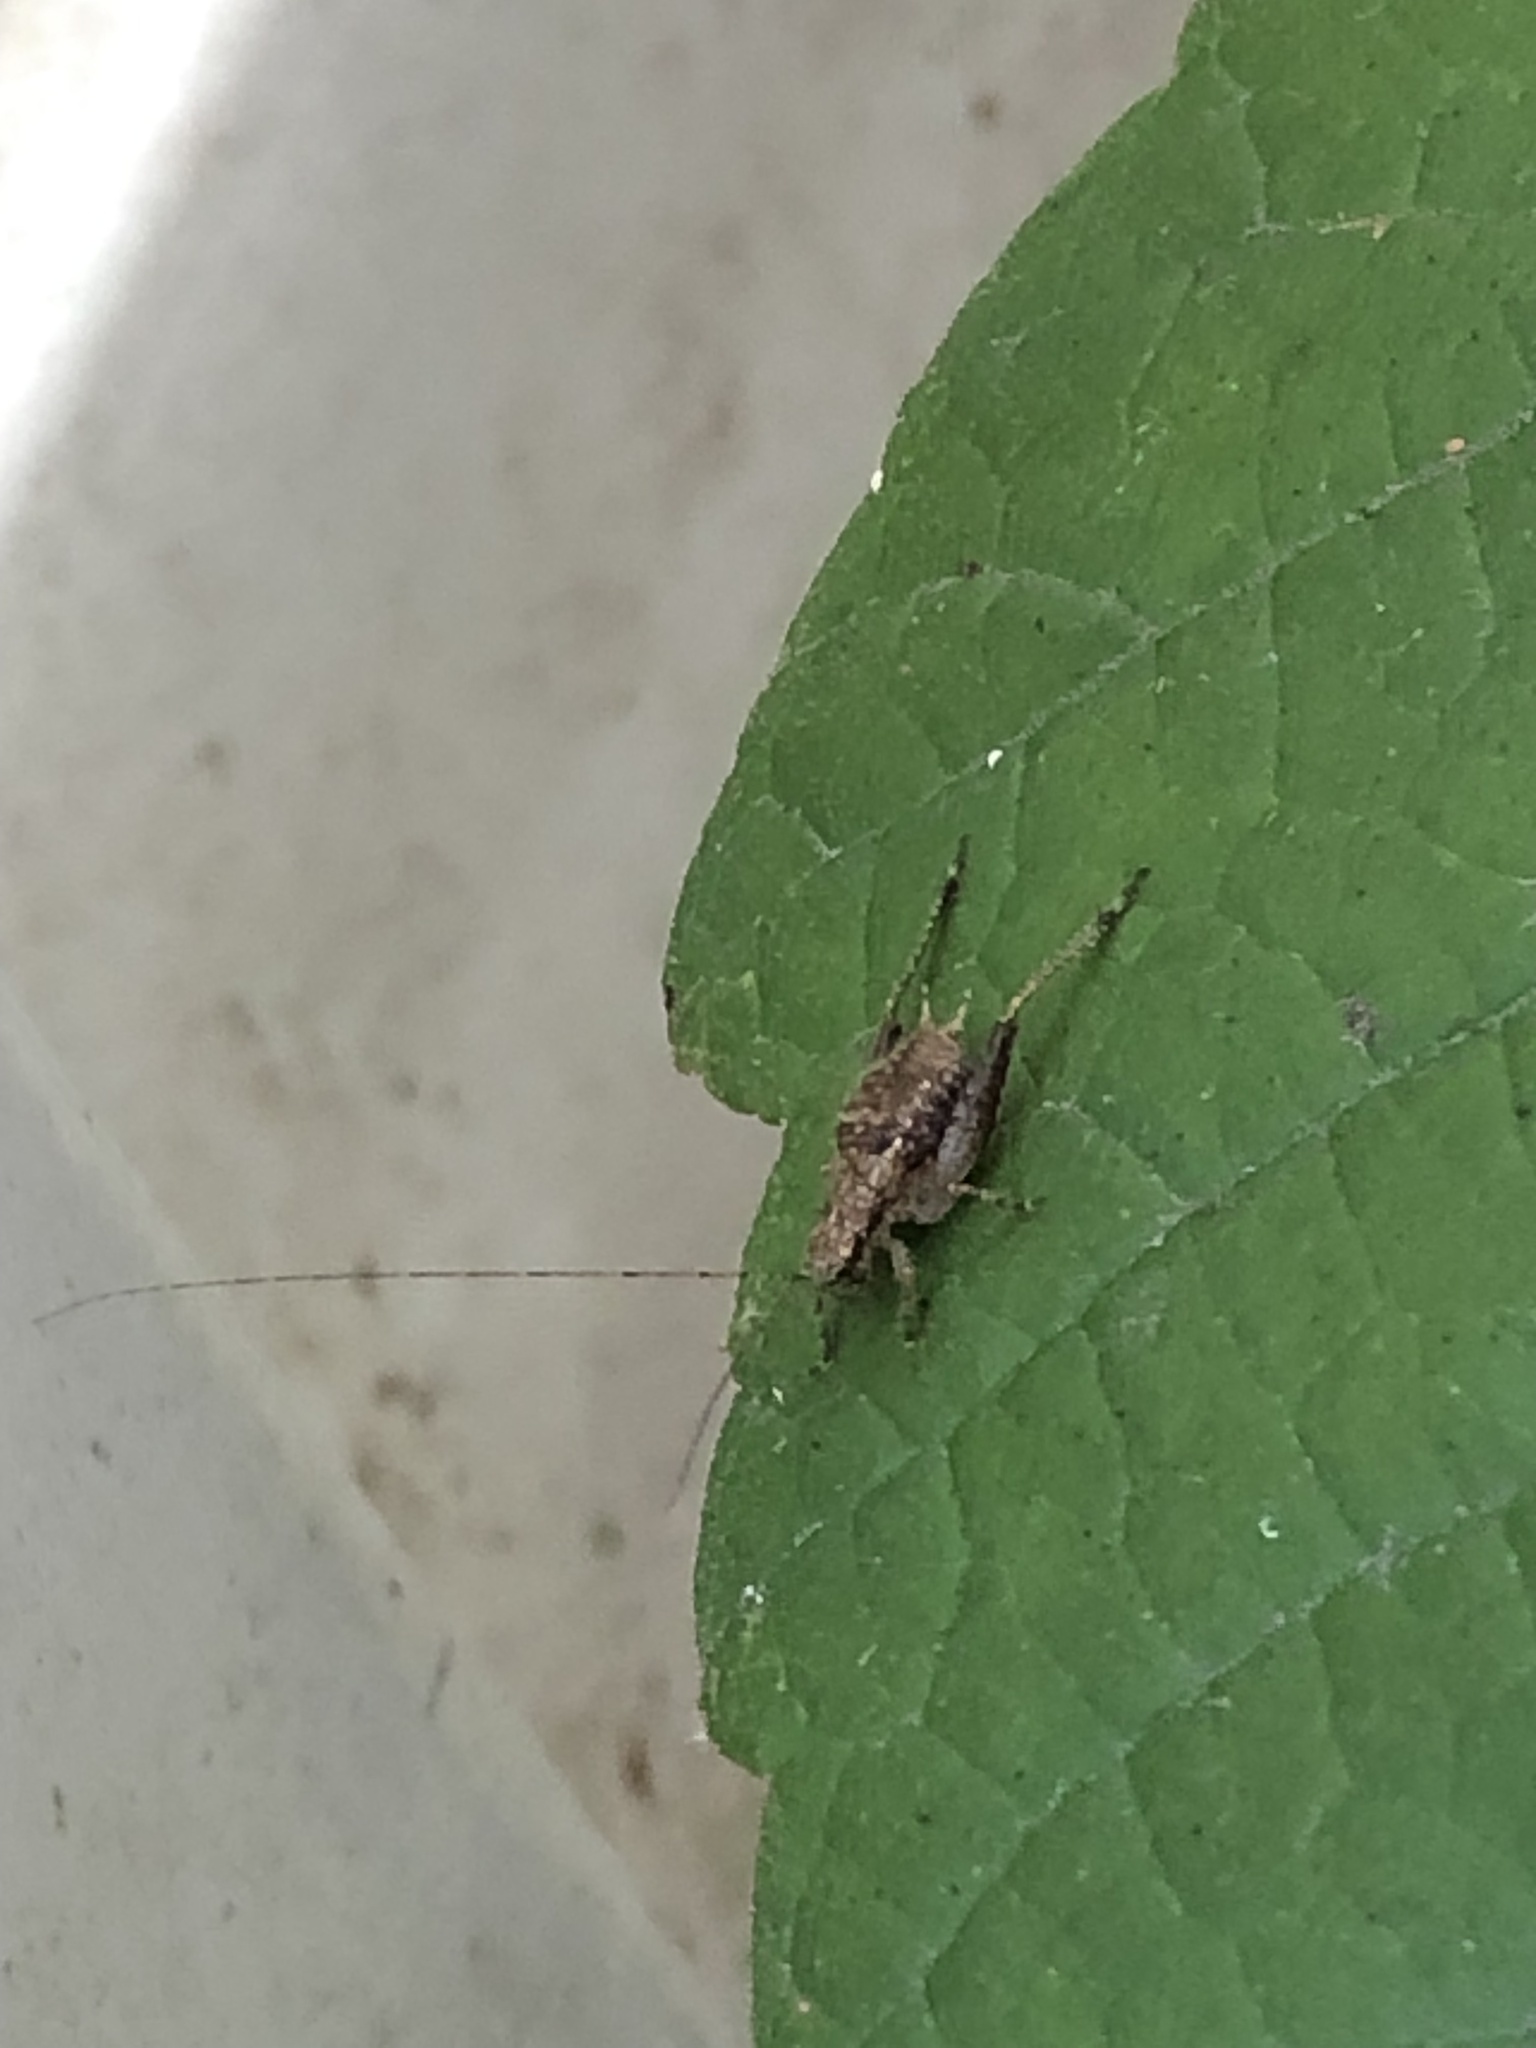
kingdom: Animalia
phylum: Arthropoda
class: Insecta
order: Orthoptera
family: Gryllidae
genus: Hapithus
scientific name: Hapithus agitator
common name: Restless bush cricket
